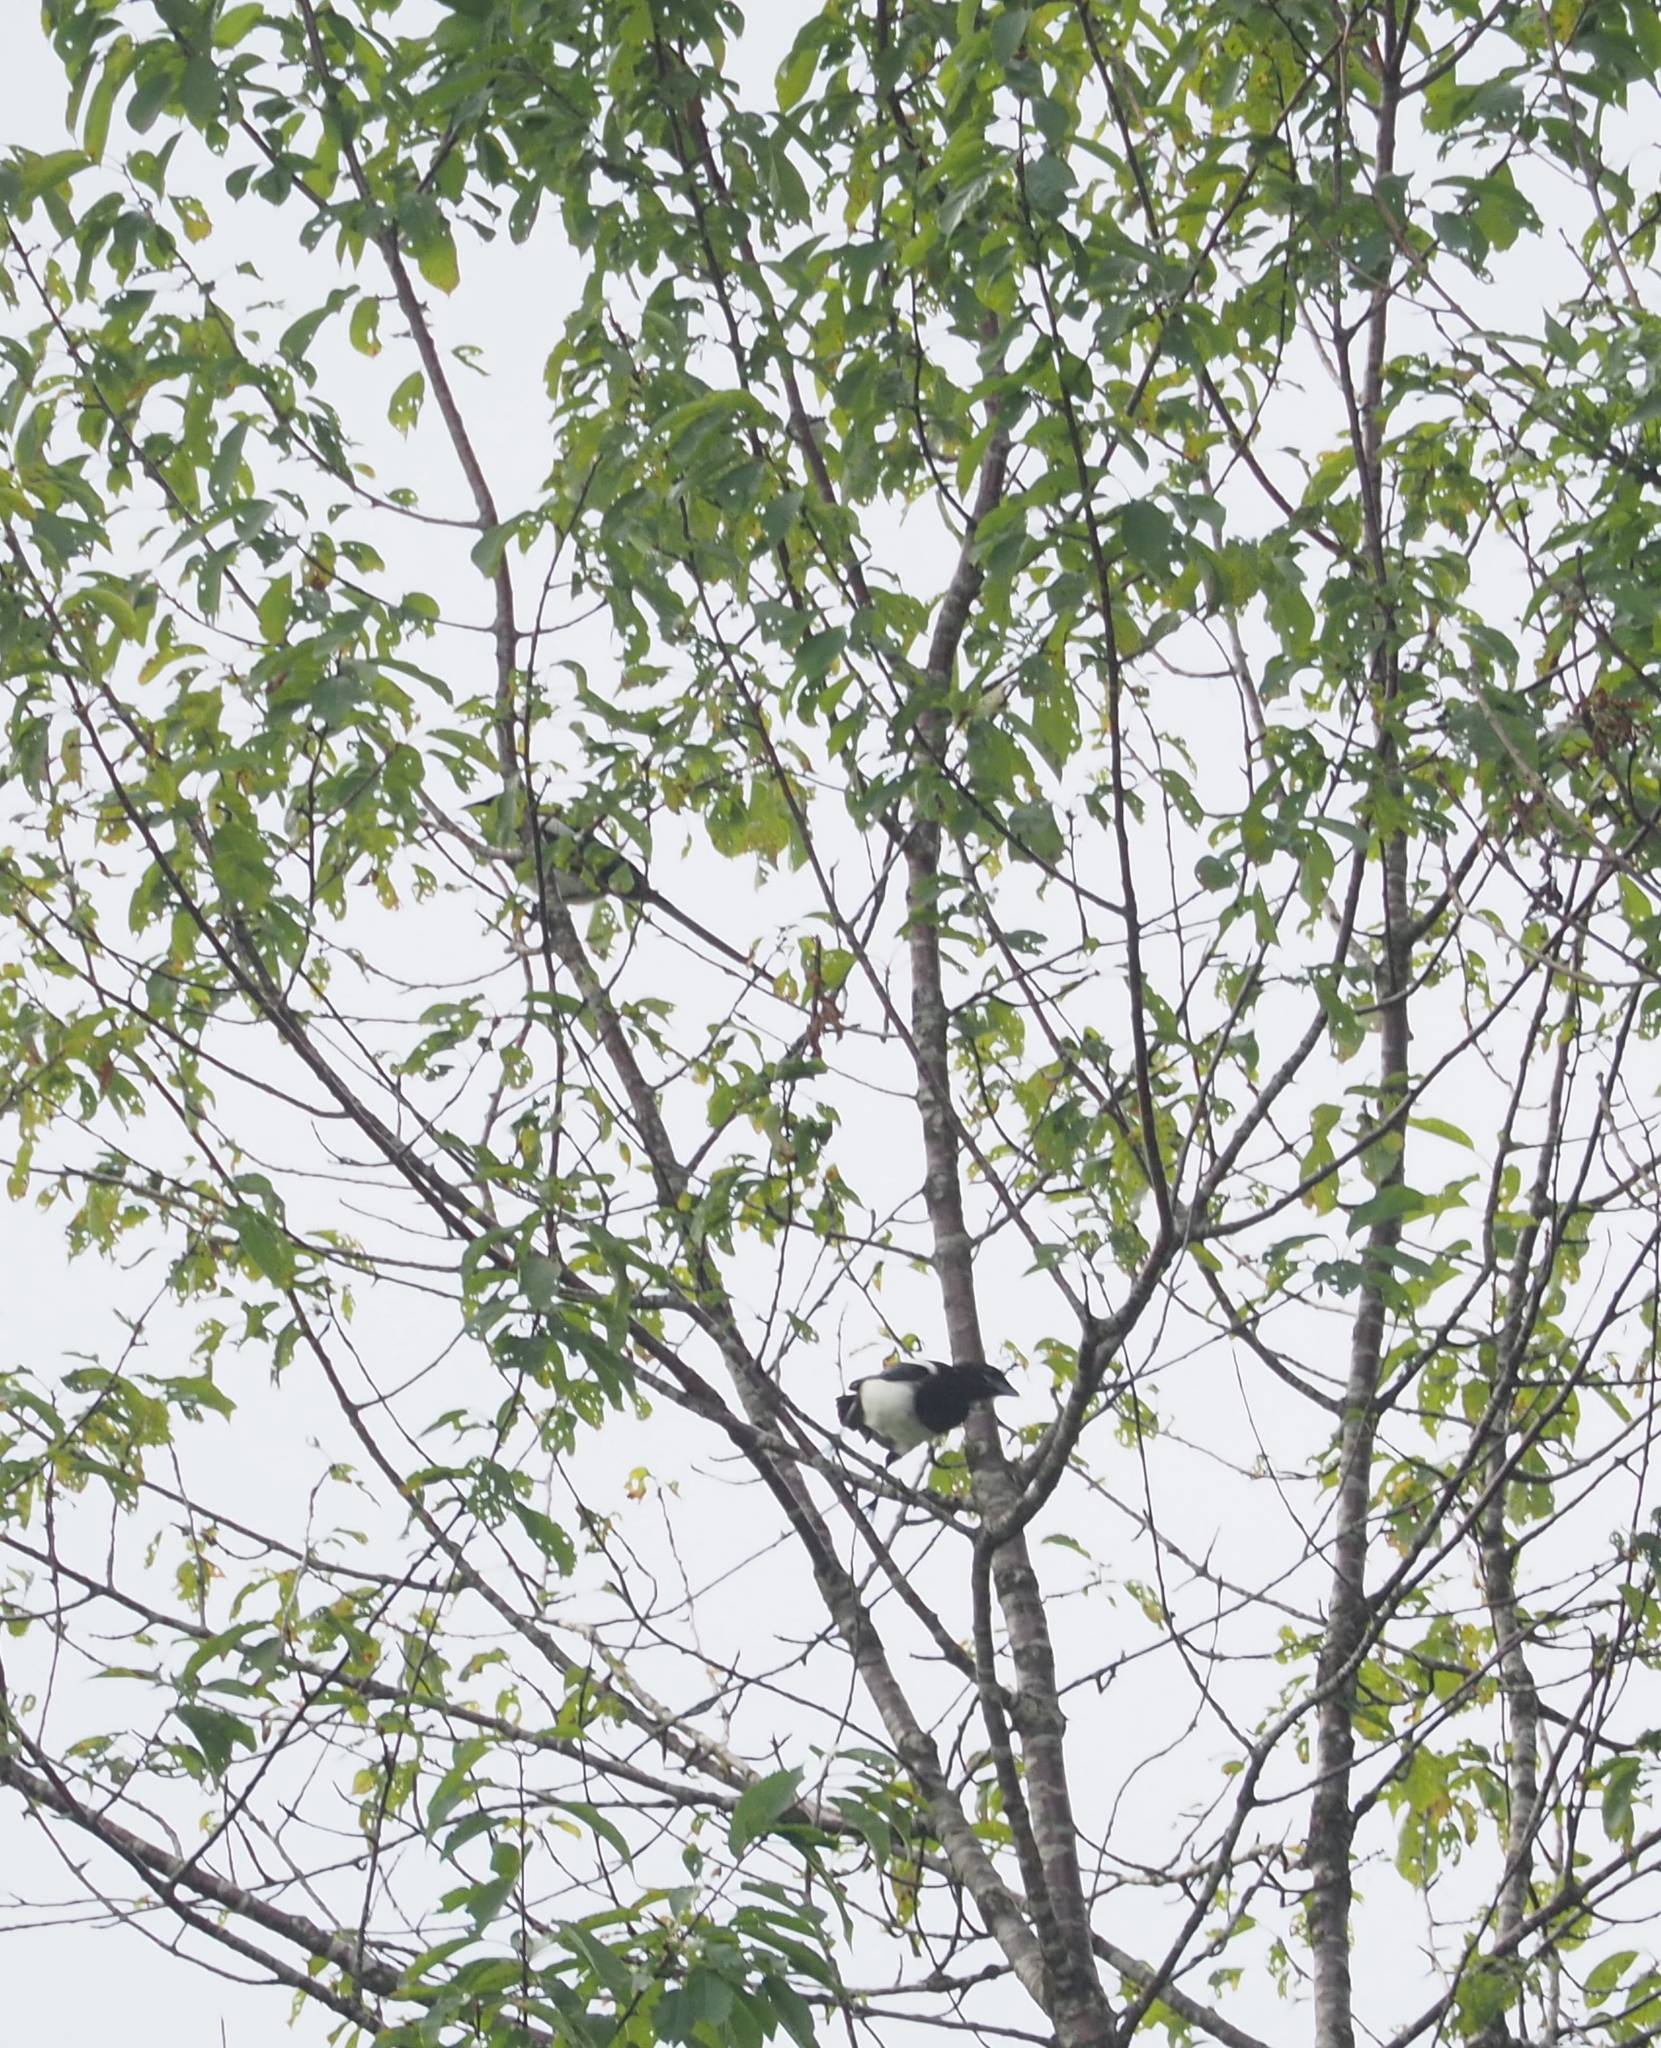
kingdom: Animalia
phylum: Chordata
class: Aves
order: Passeriformes
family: Corvidae
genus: Pica
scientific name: Pica pica
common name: Eurasian magpie
